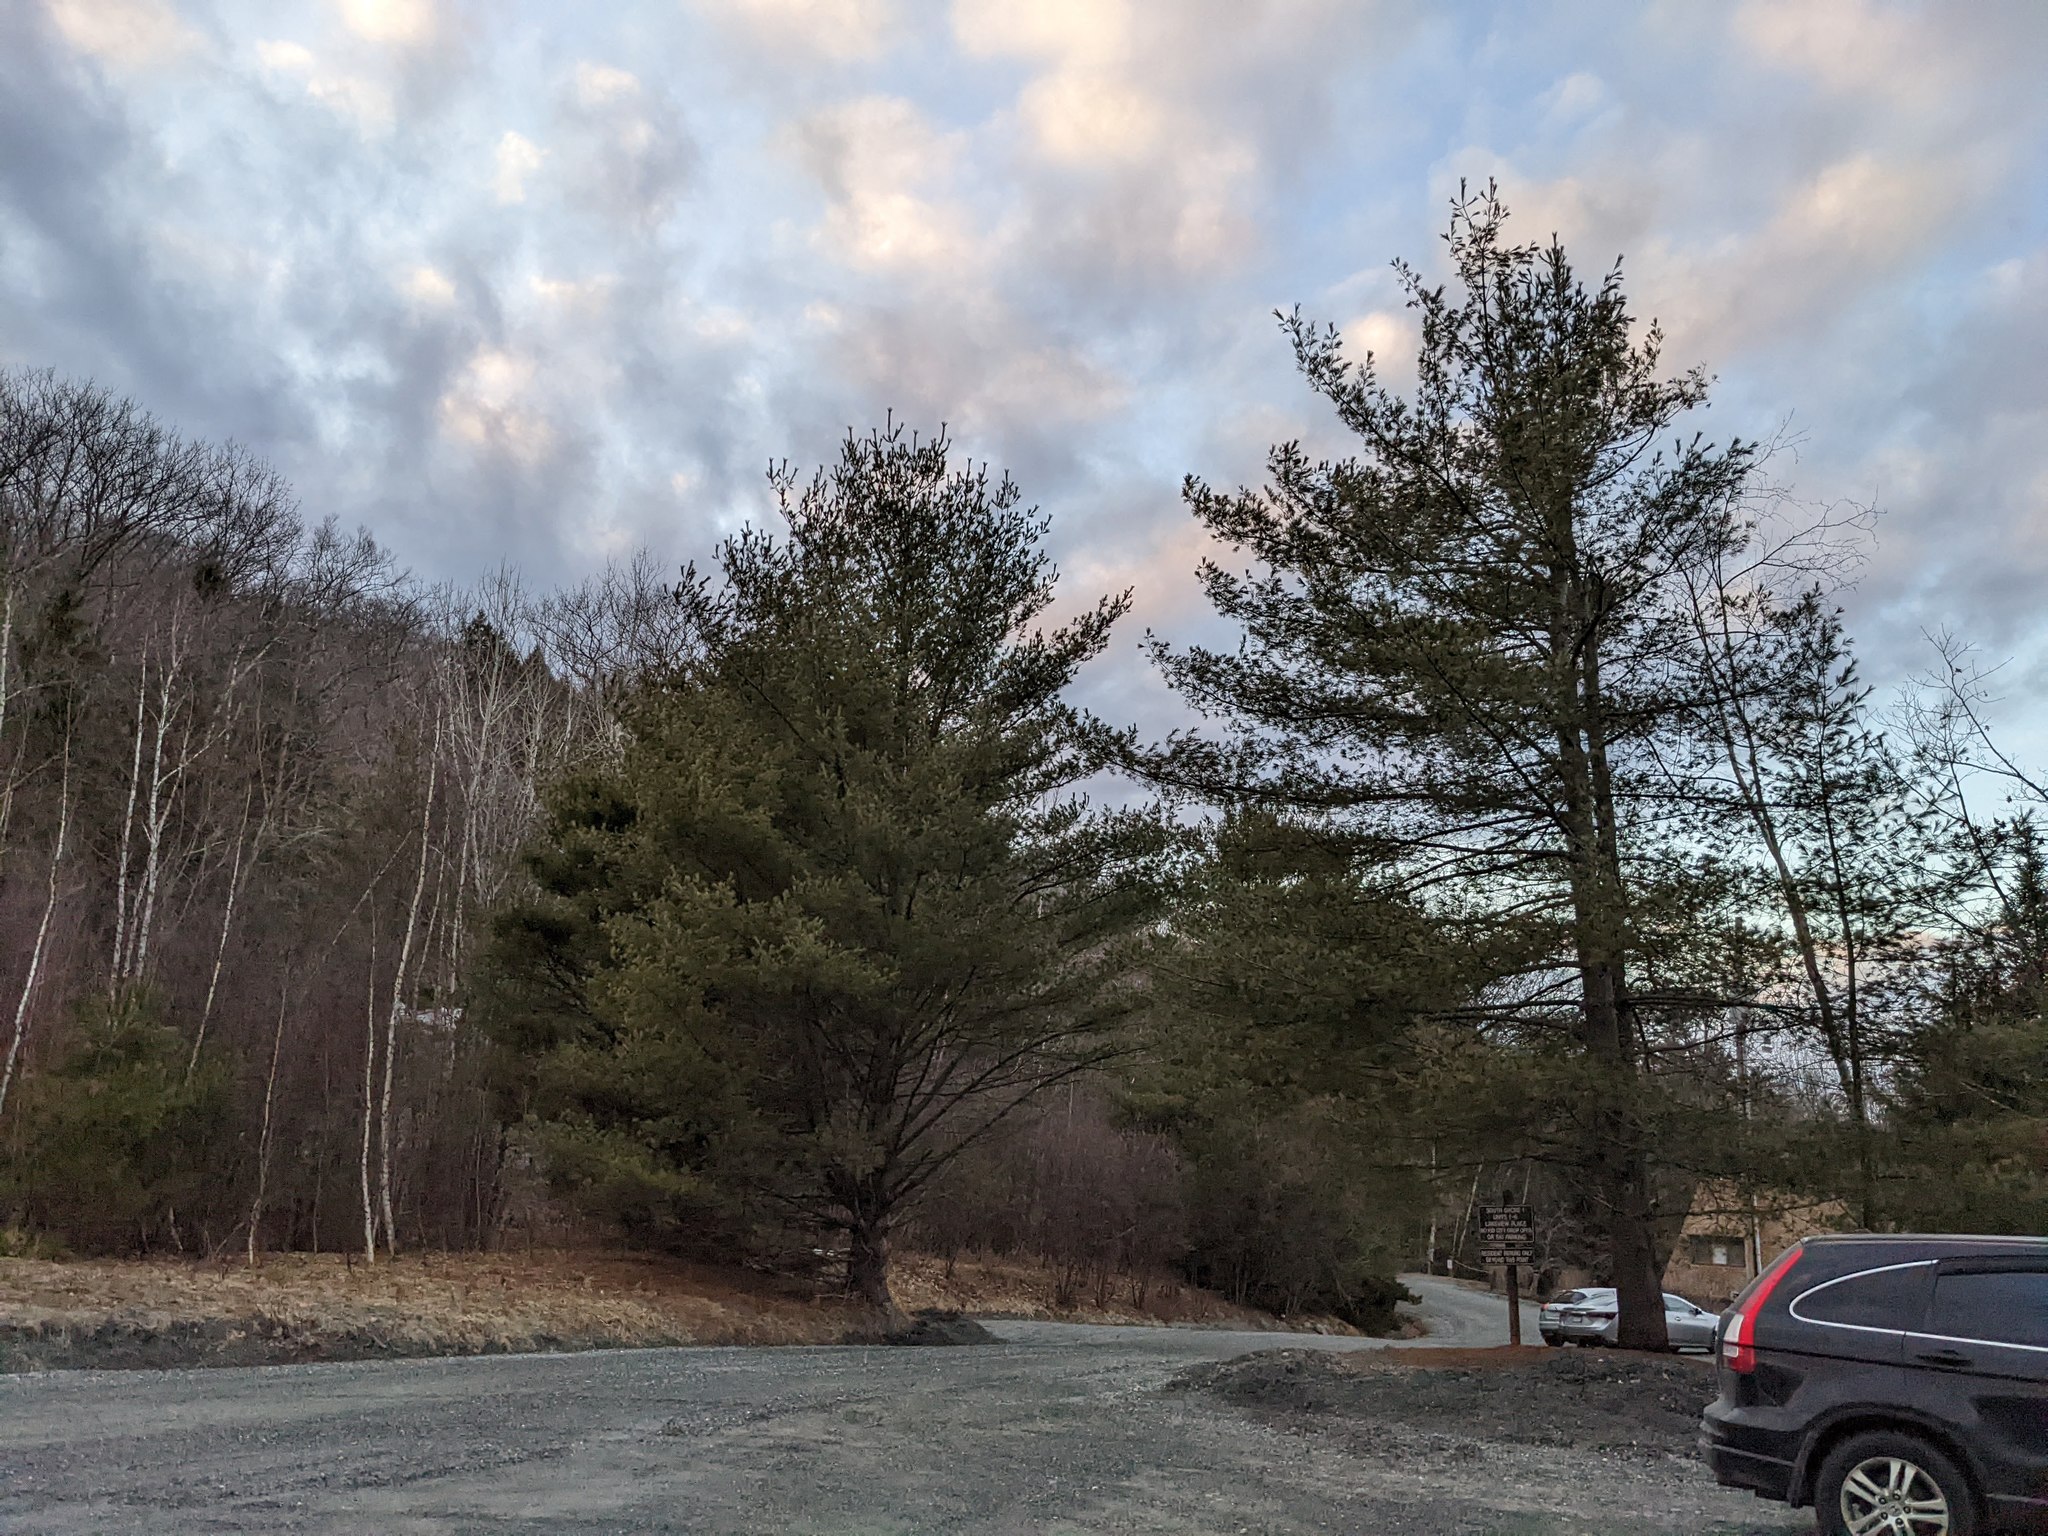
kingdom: Plantae
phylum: Tracheophyta
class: Pinopsida
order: Pinales
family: Pinaceae
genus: Pinus
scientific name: Pinus strobus
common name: Weymouth pine
